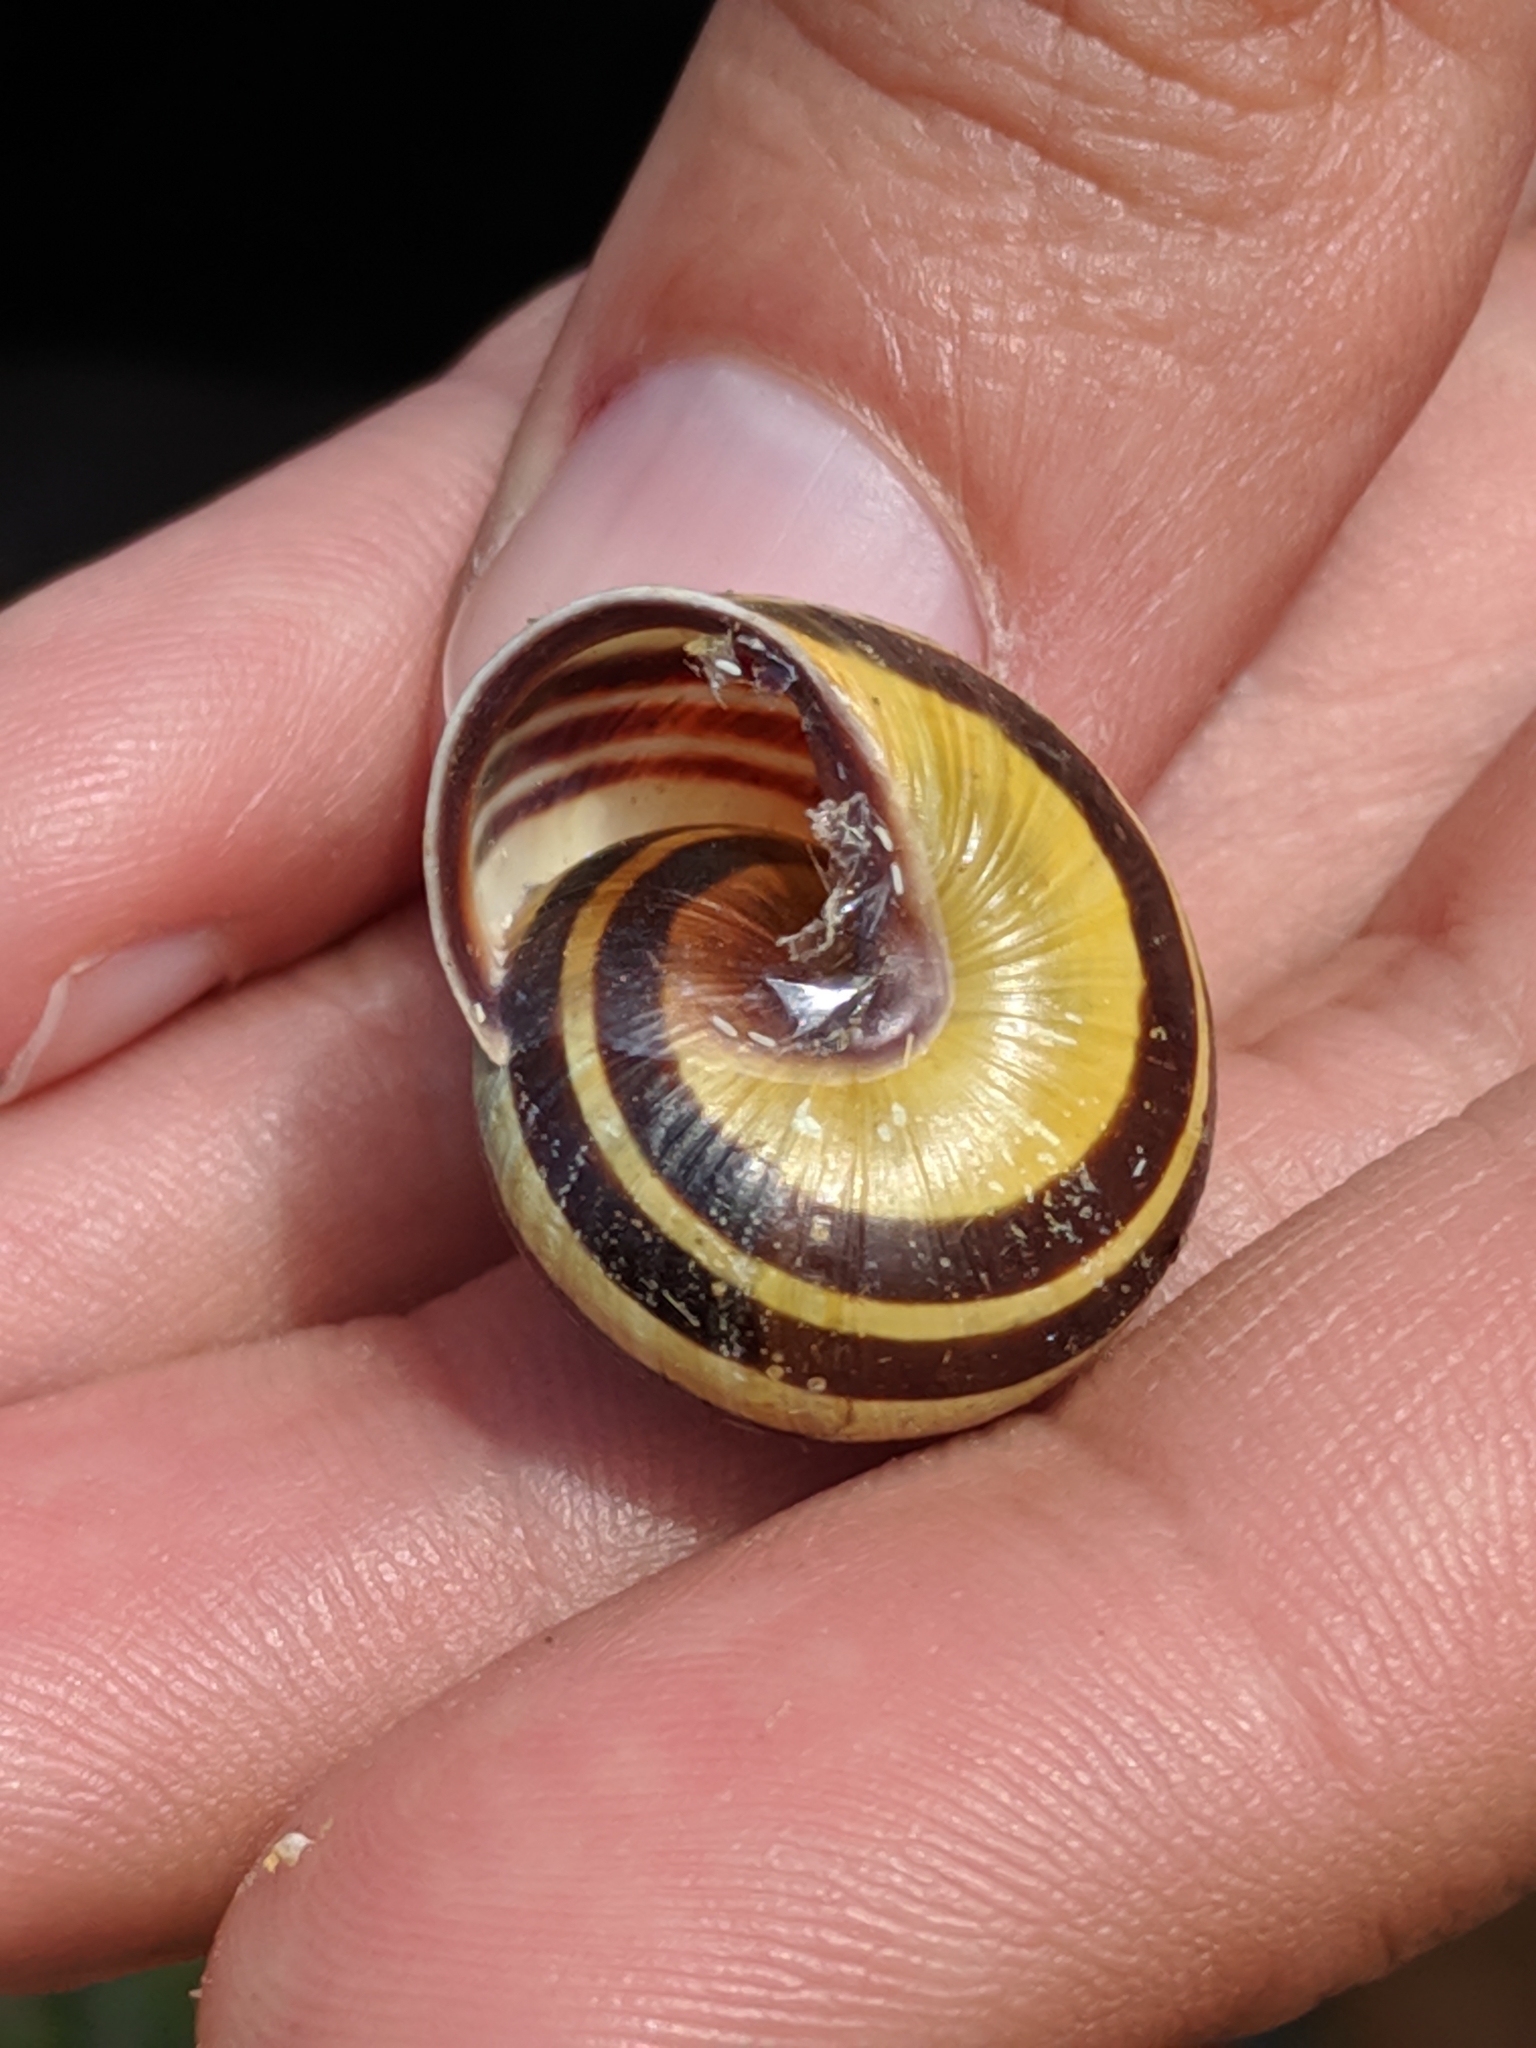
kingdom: Animalia
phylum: Mollusca
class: Gastropoda
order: Stylommatophora
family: Helicidae
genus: Cepaea
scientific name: Cepaea nemoralis
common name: Grovesnail
